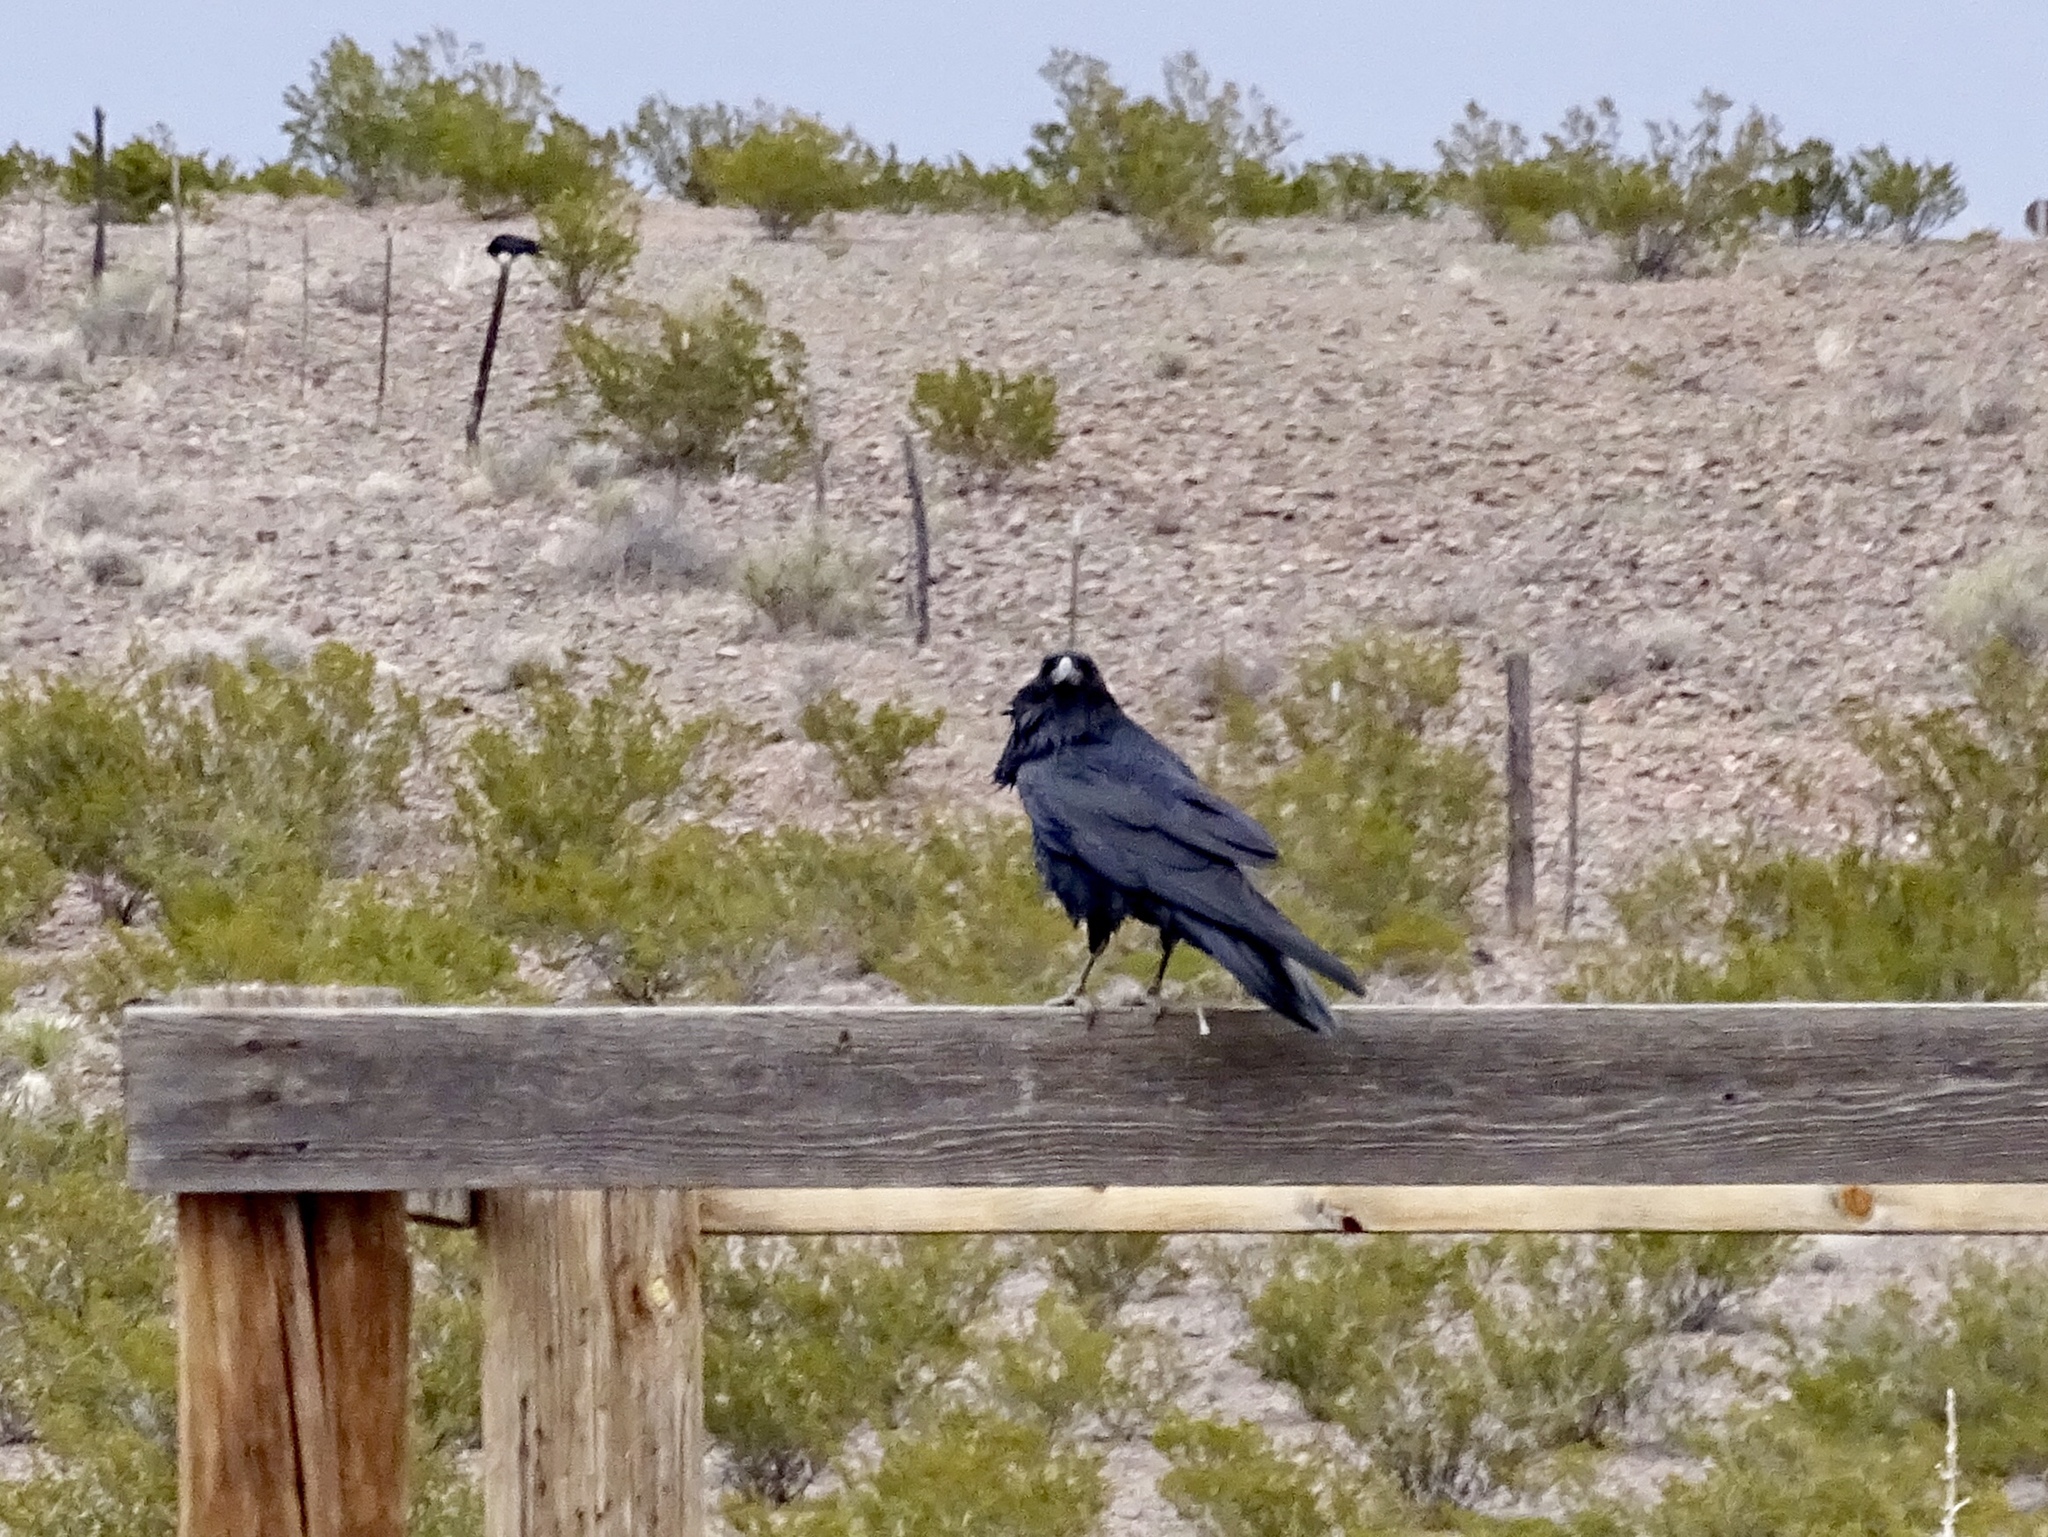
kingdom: Animalia
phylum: Chordata
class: Aves
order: Passeriformes
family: Corvidae
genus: Corvus
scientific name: Corvus cryptoleucus
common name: Chihuahuan raven
